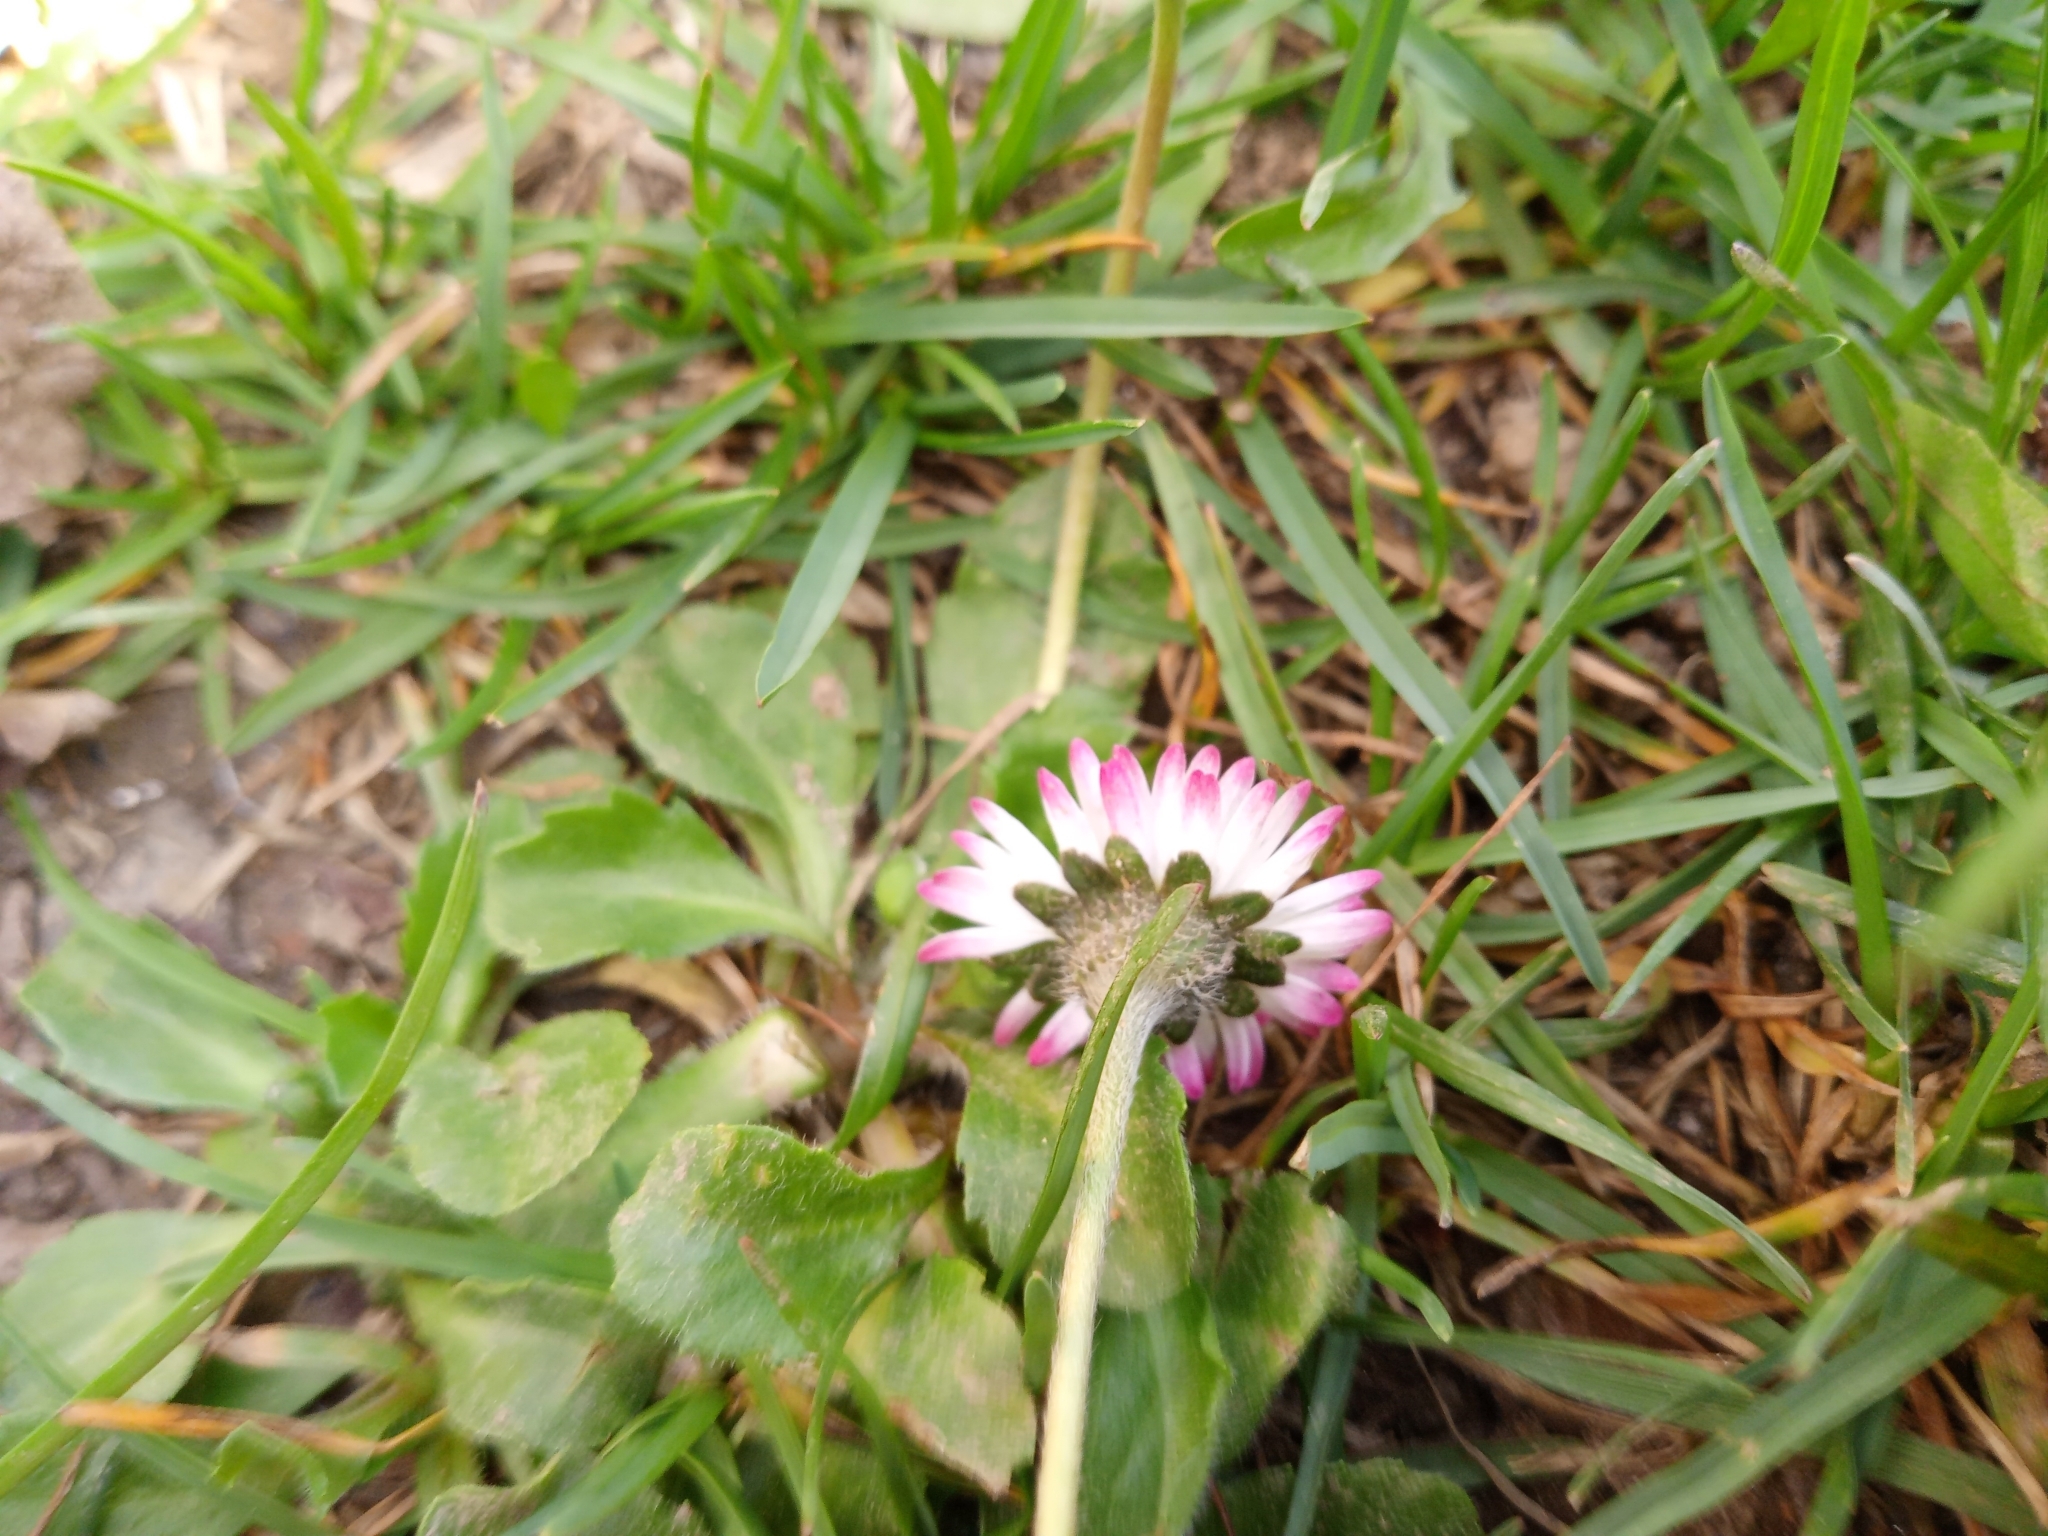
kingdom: Plantae
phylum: Tracheophyta
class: Magnoliopsida
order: Asterales
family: Asteraceae
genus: Bellis
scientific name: Bellis perennis
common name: Lawndaisy
